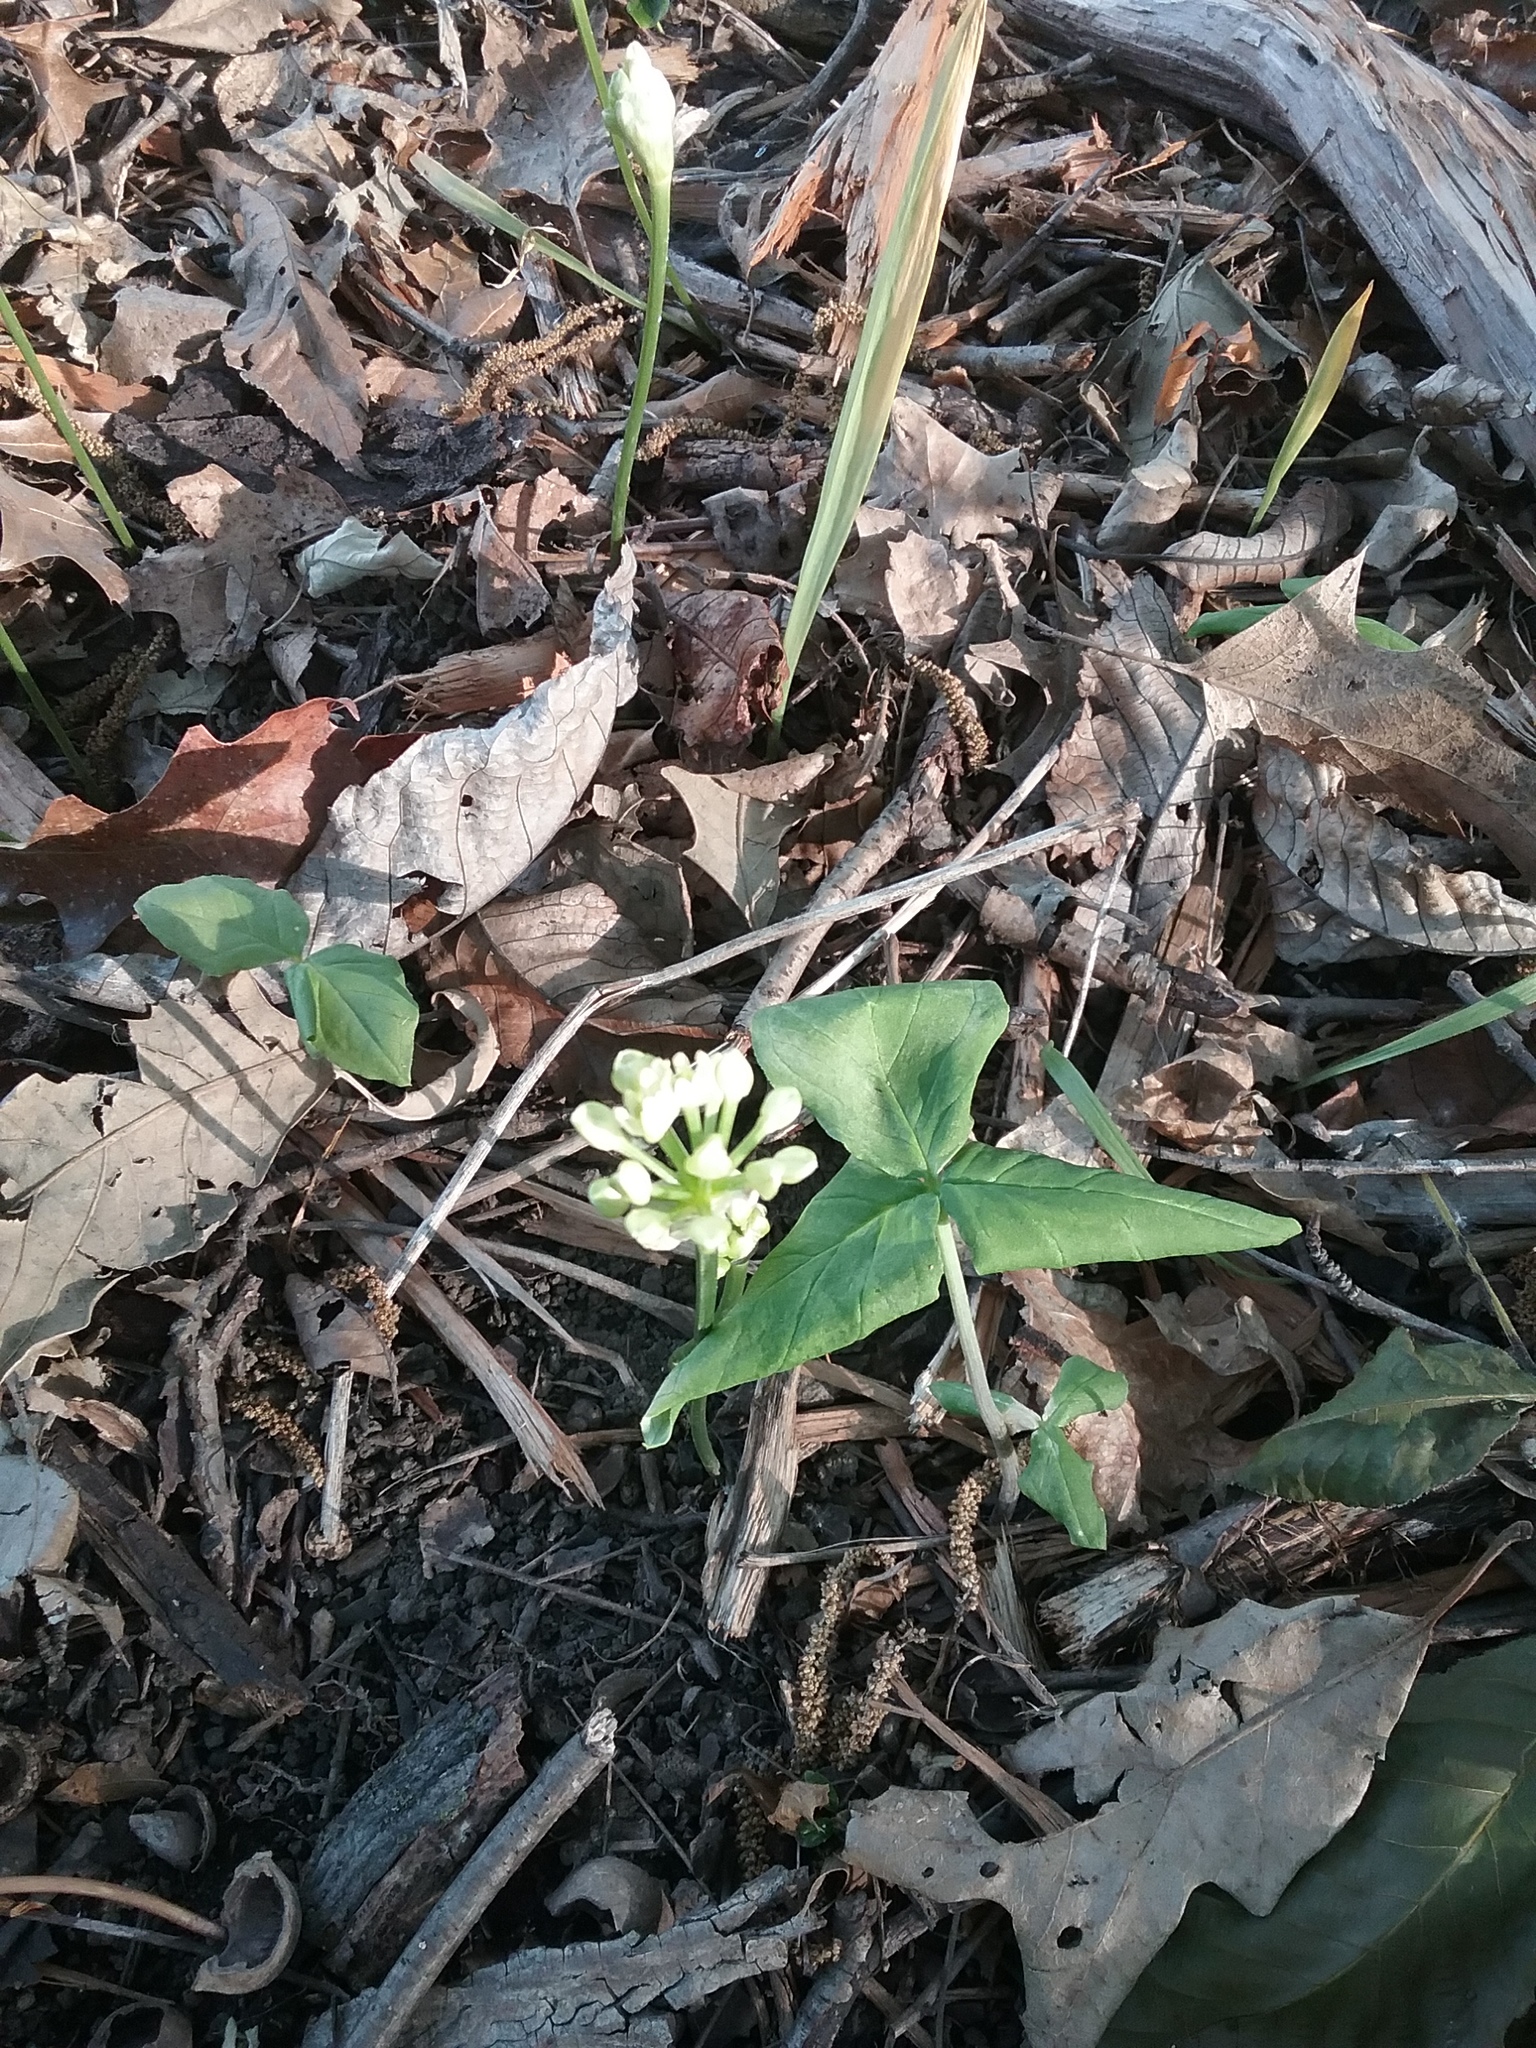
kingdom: Plantae
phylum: Tracheophyta
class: Liliopsida
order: Asparagales
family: Amaryllidaceae
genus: Allium
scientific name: Allium tricoccum
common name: Ramp
